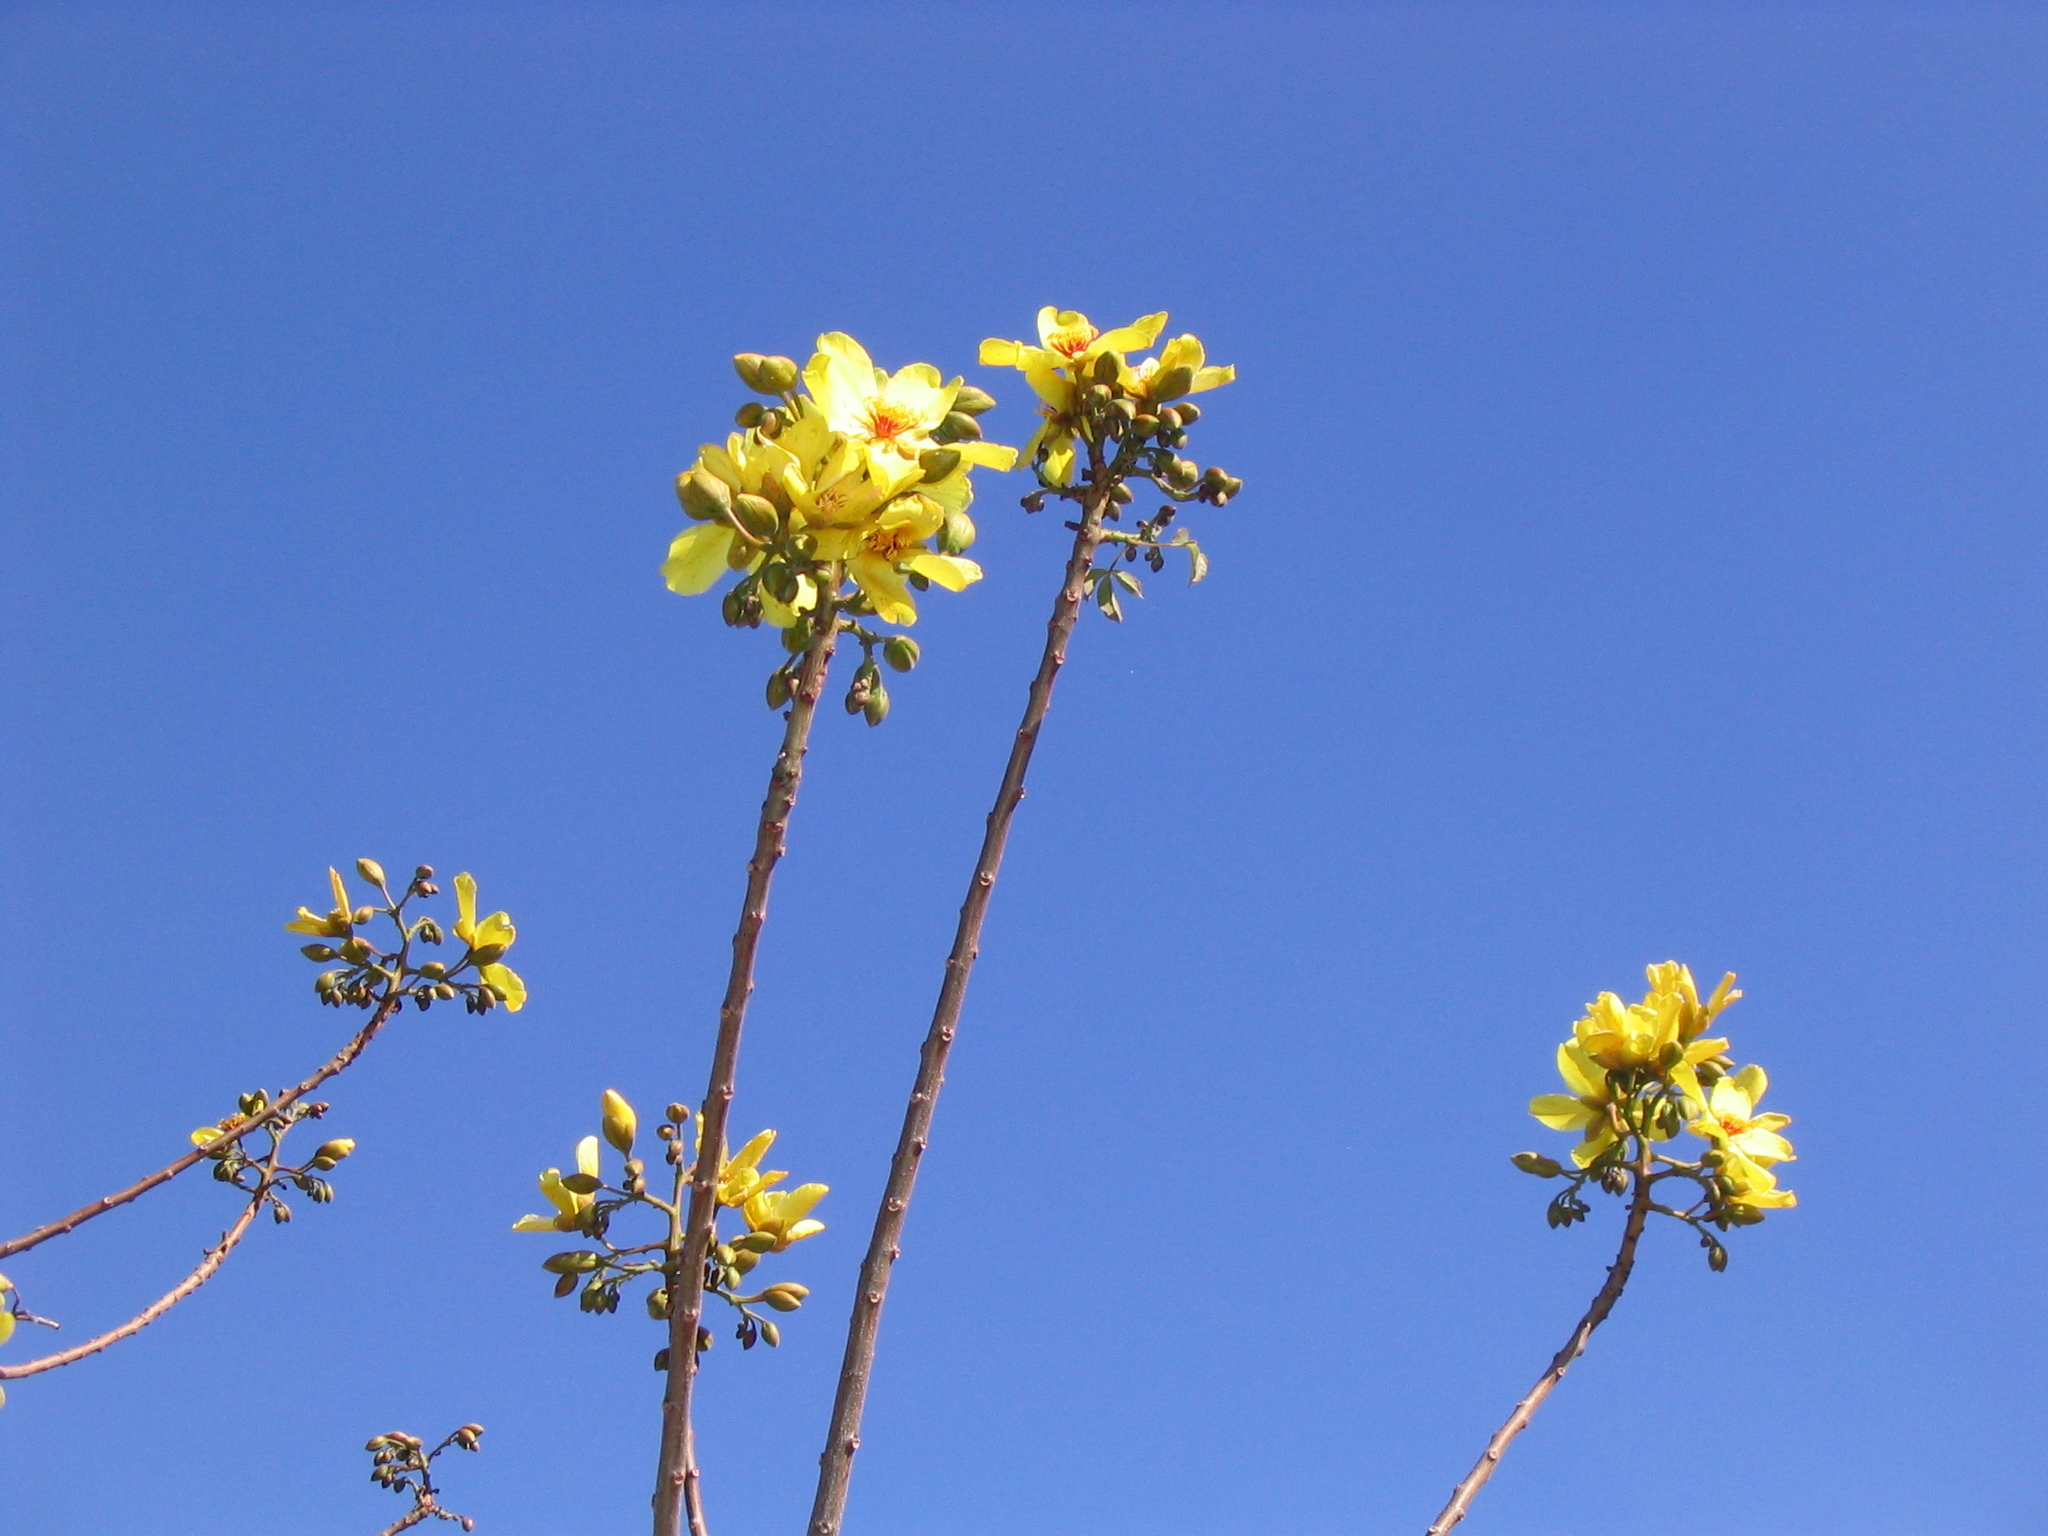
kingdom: Plantae
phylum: Tracheophyta
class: Magnoliopsida
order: Malvales
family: Cochlospermaceae
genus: Cochlospermum
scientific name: Cochlospermum gillivraei
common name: Cottontree
